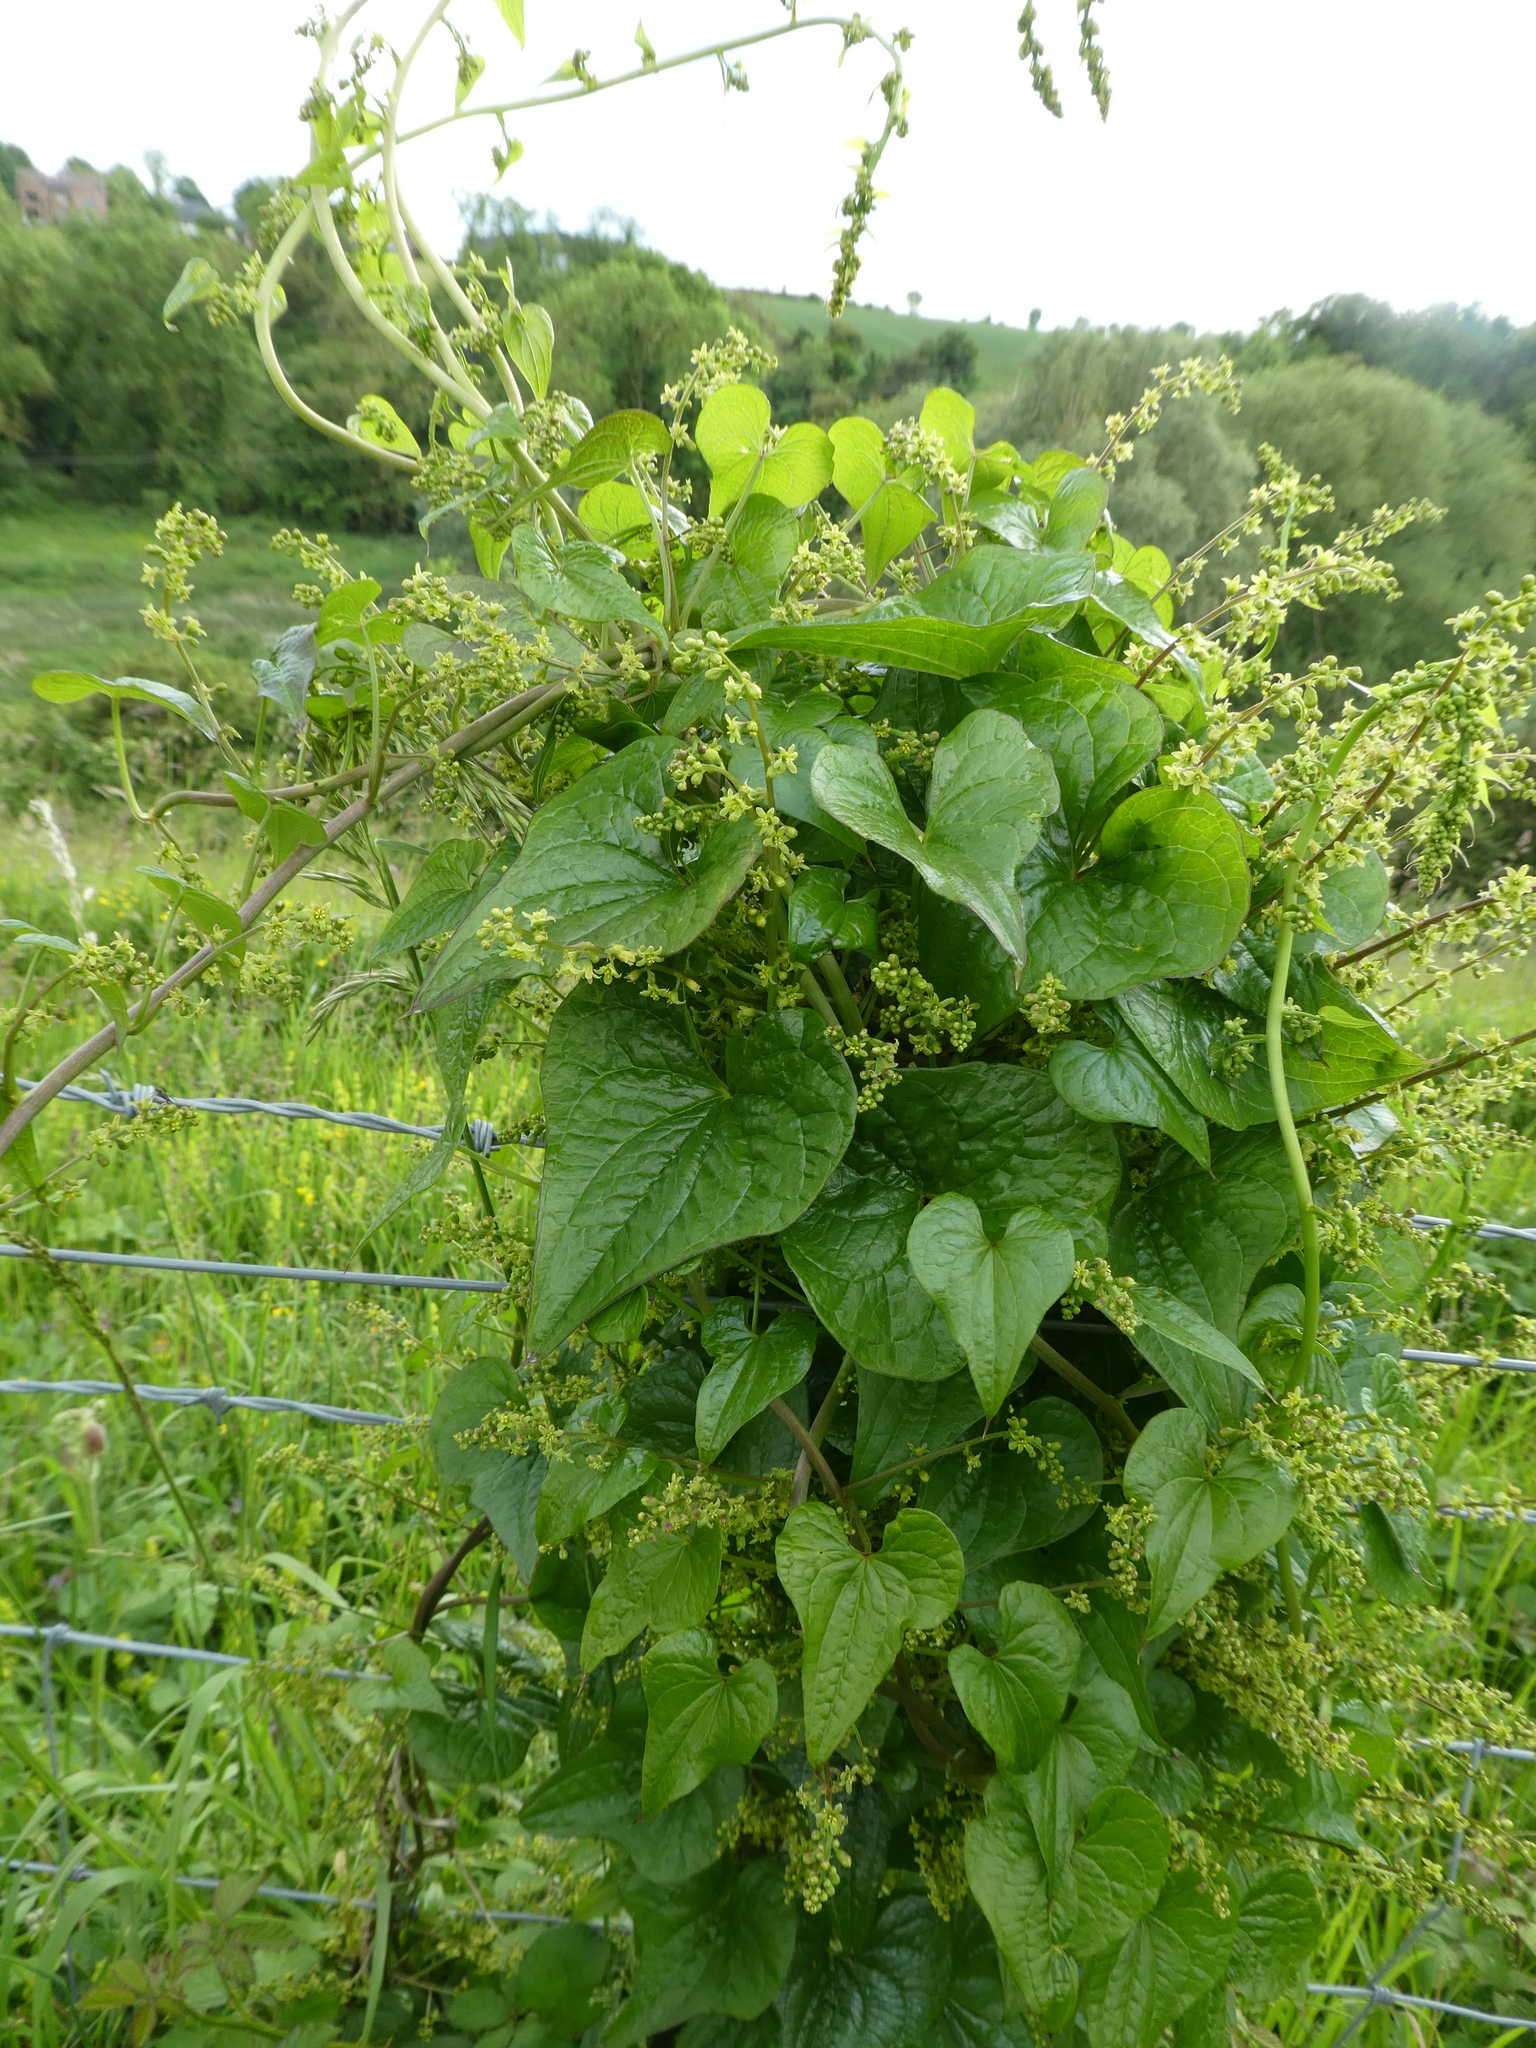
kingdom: Plantae
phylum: Tracheophyta
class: Liliopsida
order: Dioscoreales
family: Dioscoreaceae
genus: Dioscorea
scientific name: Dioscorea communis
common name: Black-bindweed
